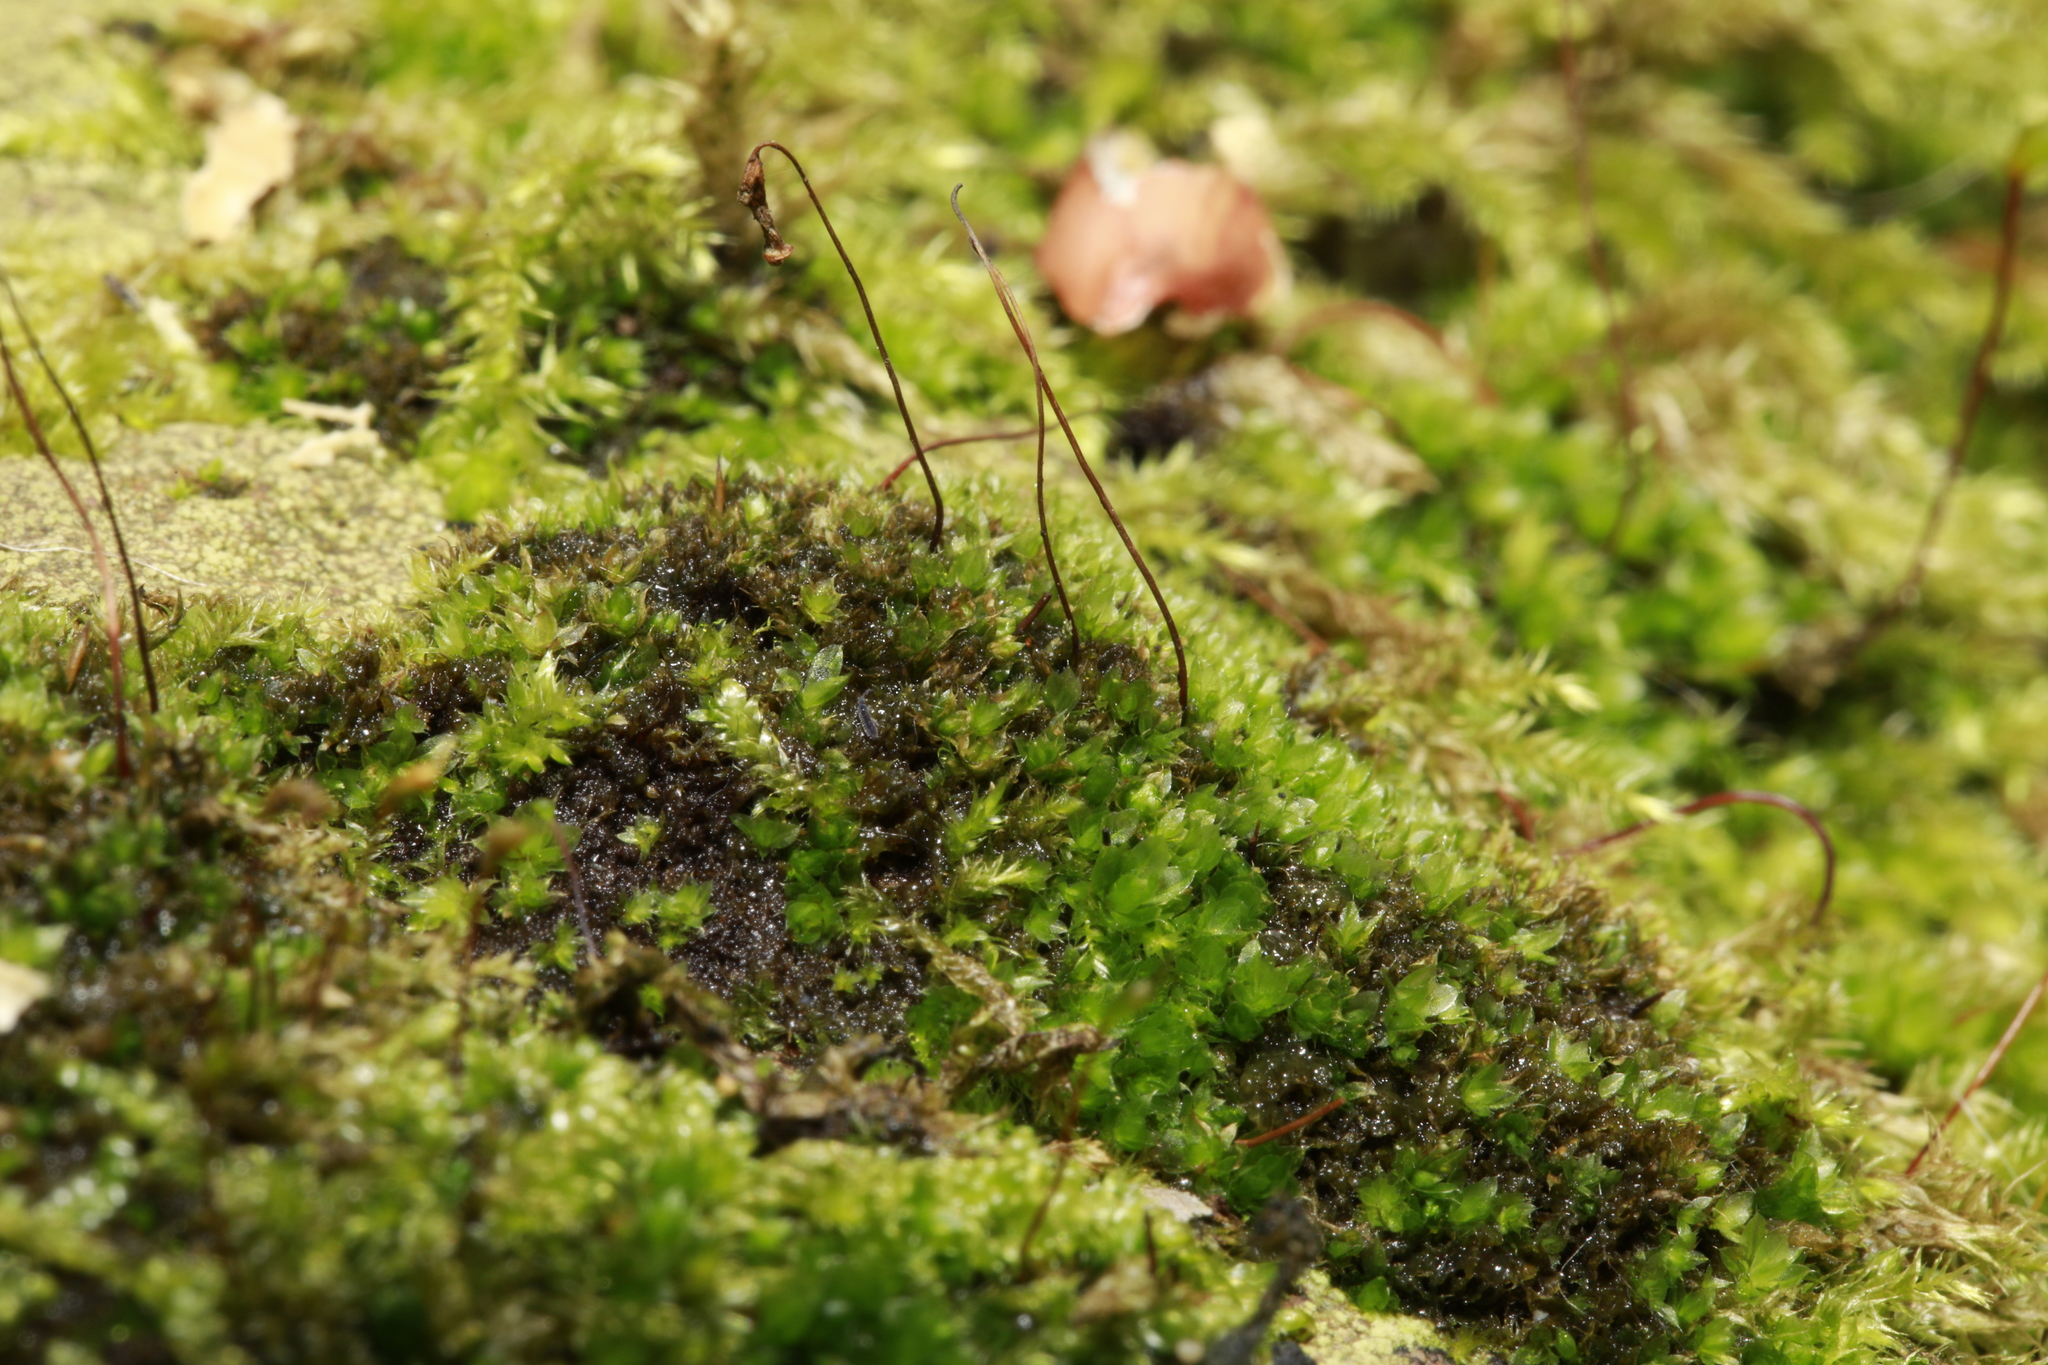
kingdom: Plantae
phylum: Bryophyta
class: Bryopsida
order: Bryales
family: Bryaceae
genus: Rosulabryum
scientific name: Rosulabryum capillare
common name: Capillary thread-moss
